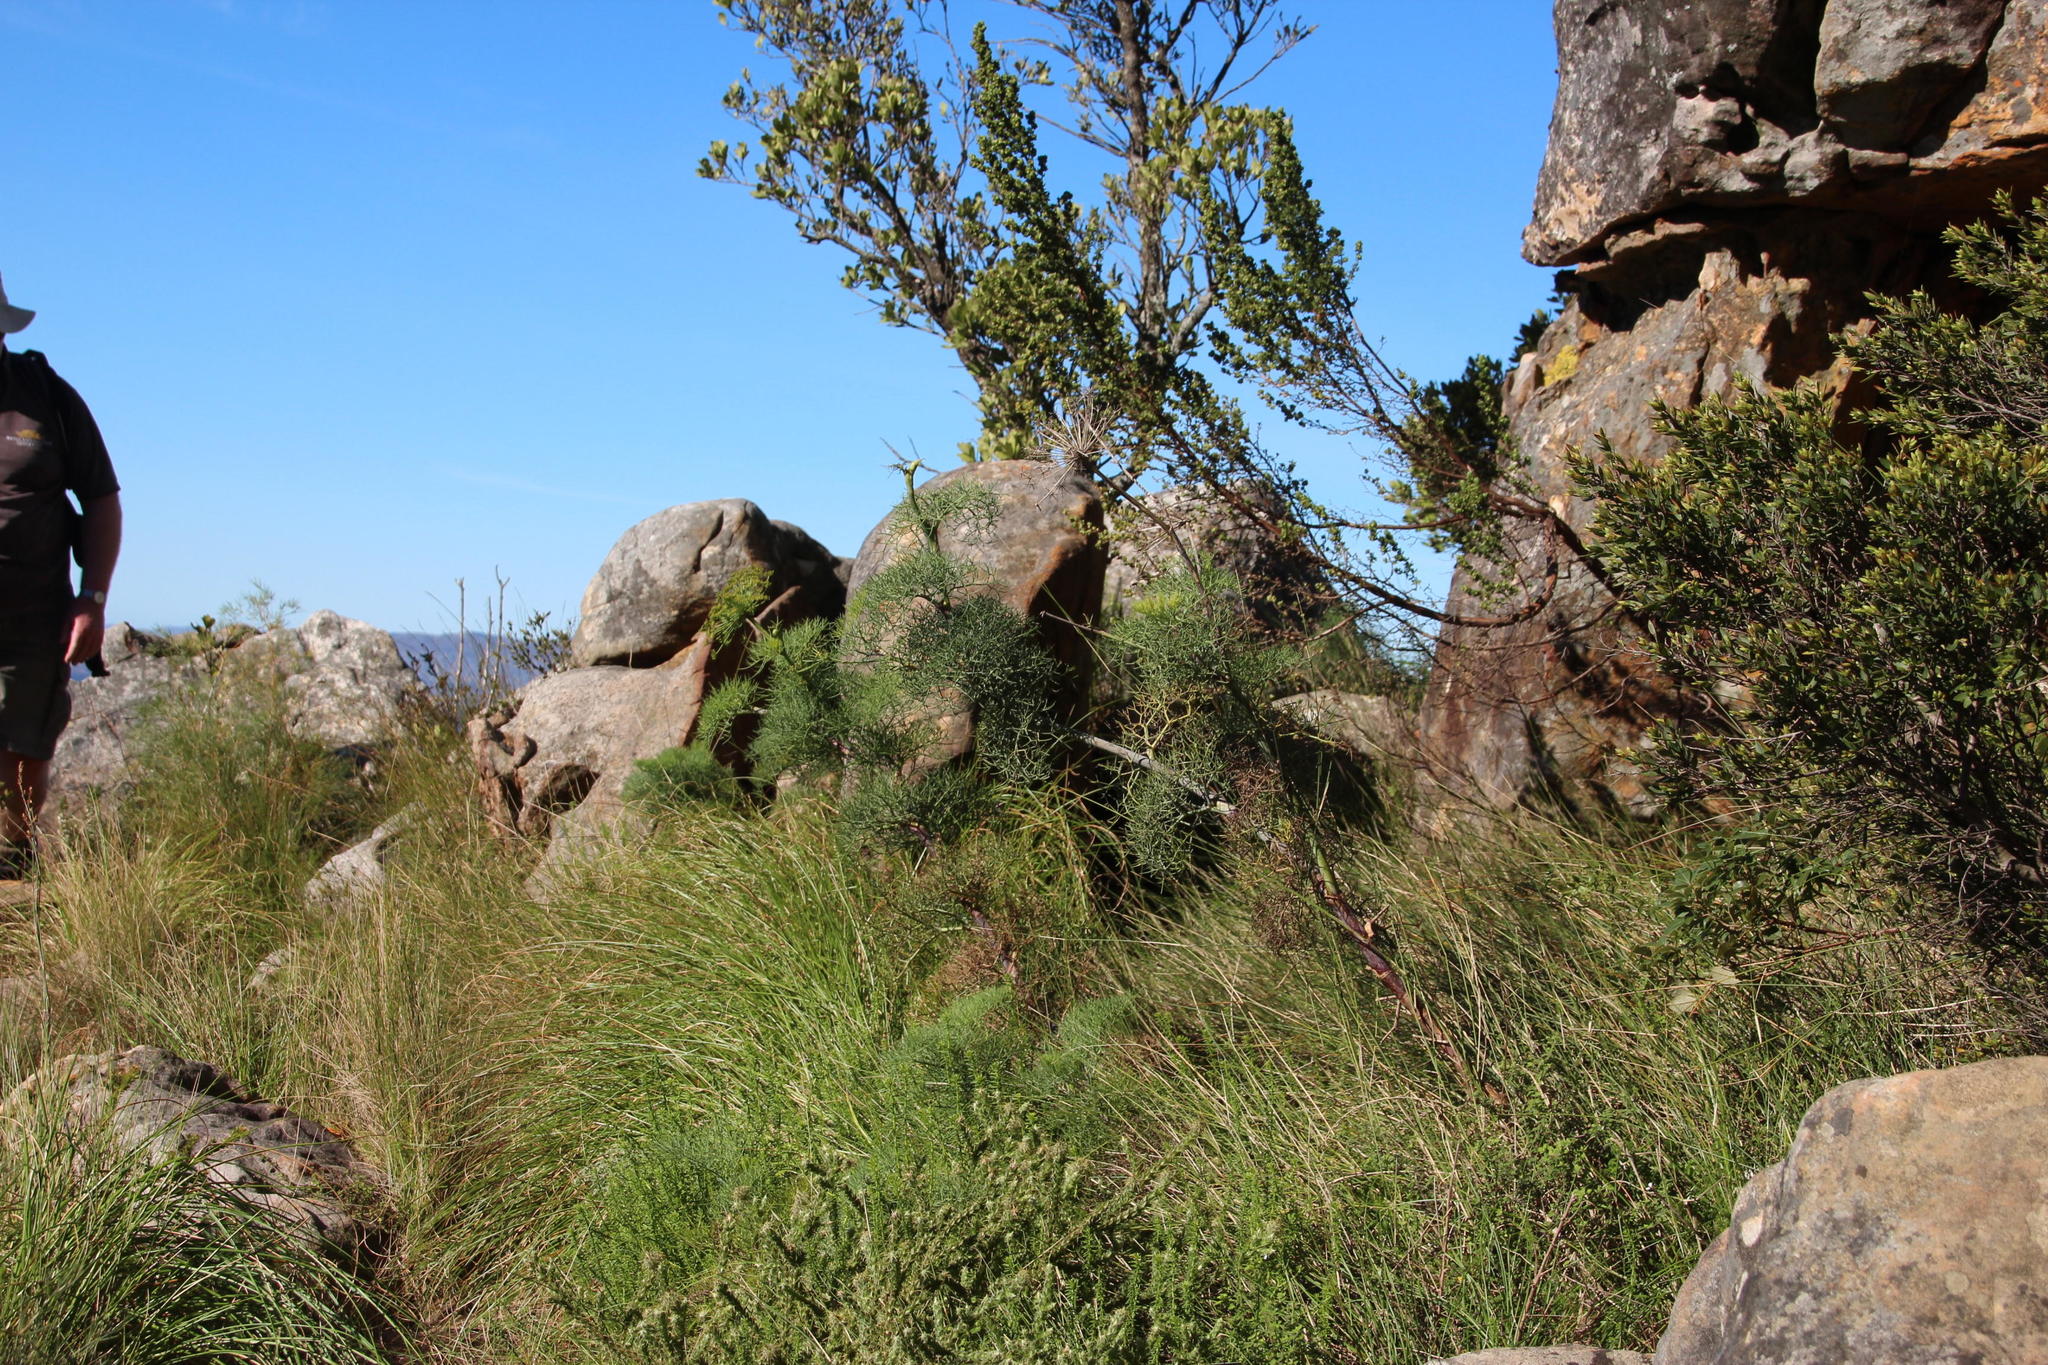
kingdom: Plantae
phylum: Tracheophyta
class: Magnoliopsida
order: Apiales
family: Apiaceae
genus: Notobubon
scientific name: Notobubon capense
